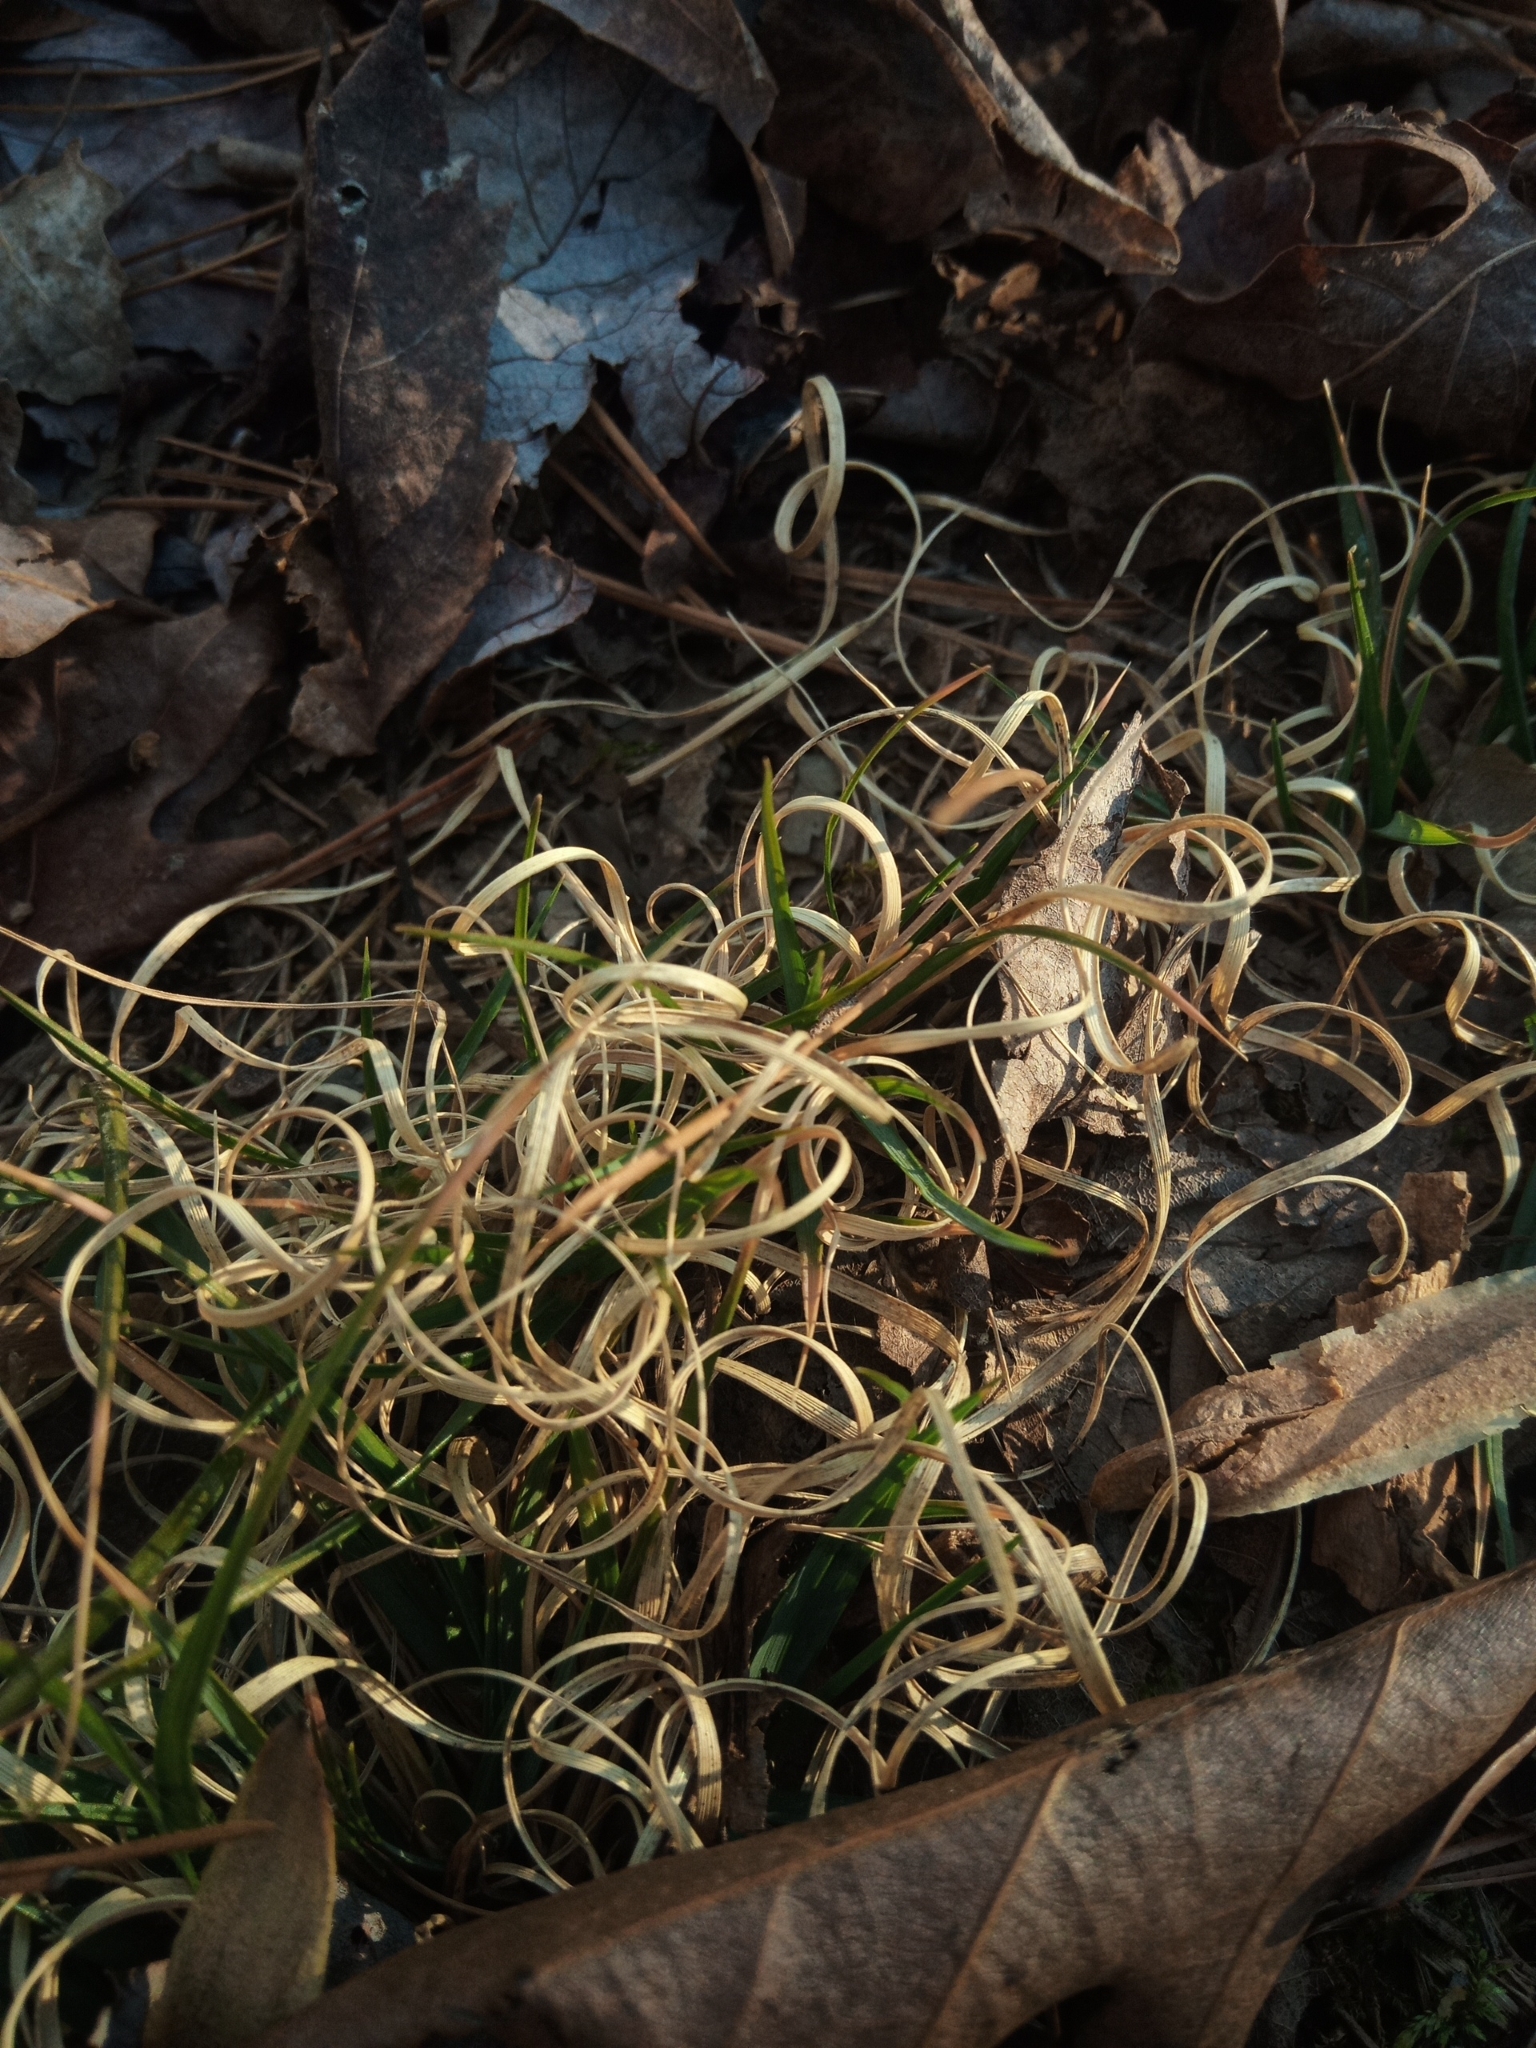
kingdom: Plantae
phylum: Tracheophyta
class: Liliopsida
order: Poales
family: Poaceae
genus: Danthonia
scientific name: Danthonia spicata
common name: Common wild oatgrass
